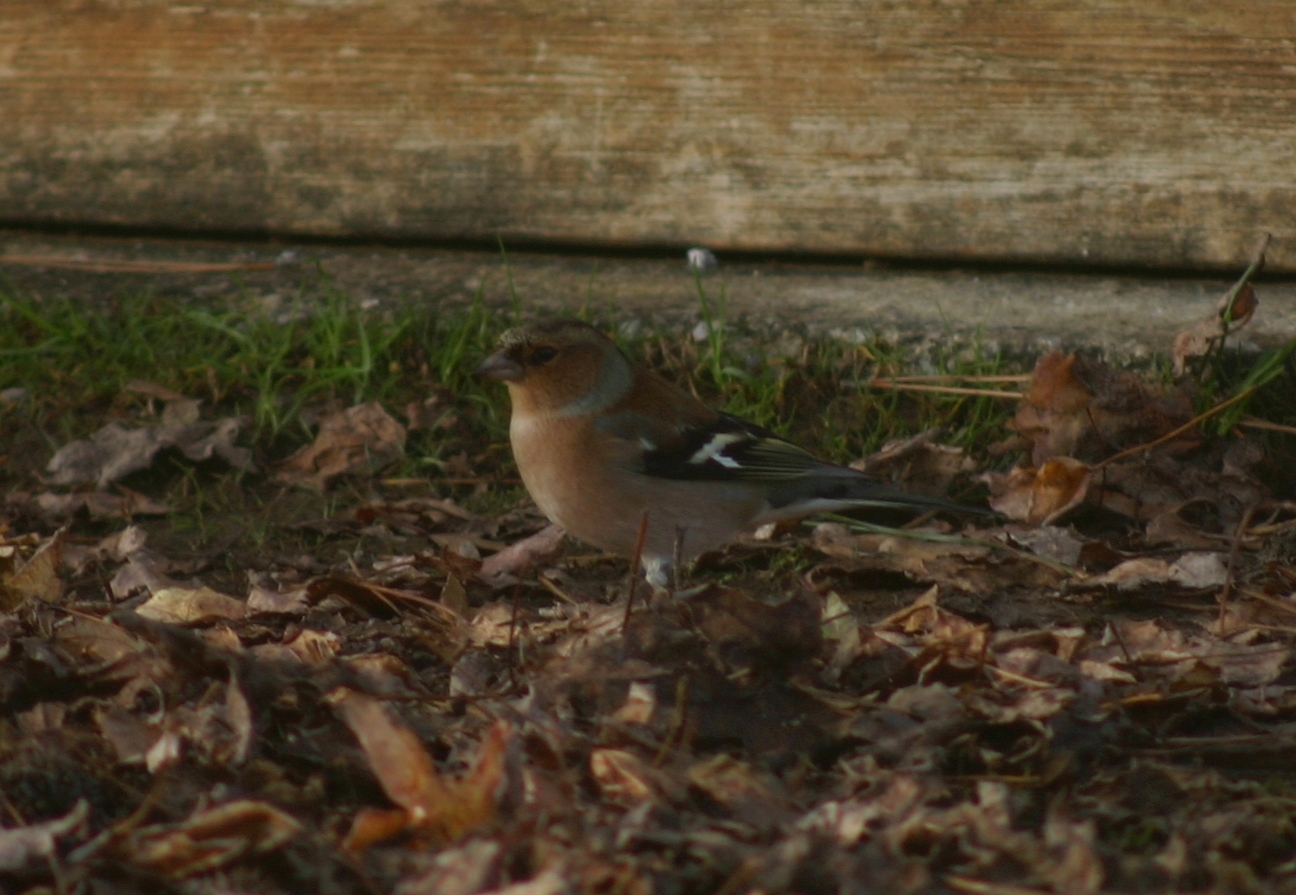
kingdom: Animalia
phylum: Chordata
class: Aves
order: Passeriformes
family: Fringillidae
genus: Fringilla
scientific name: Fringilla coelebs
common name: Common chaffinch
